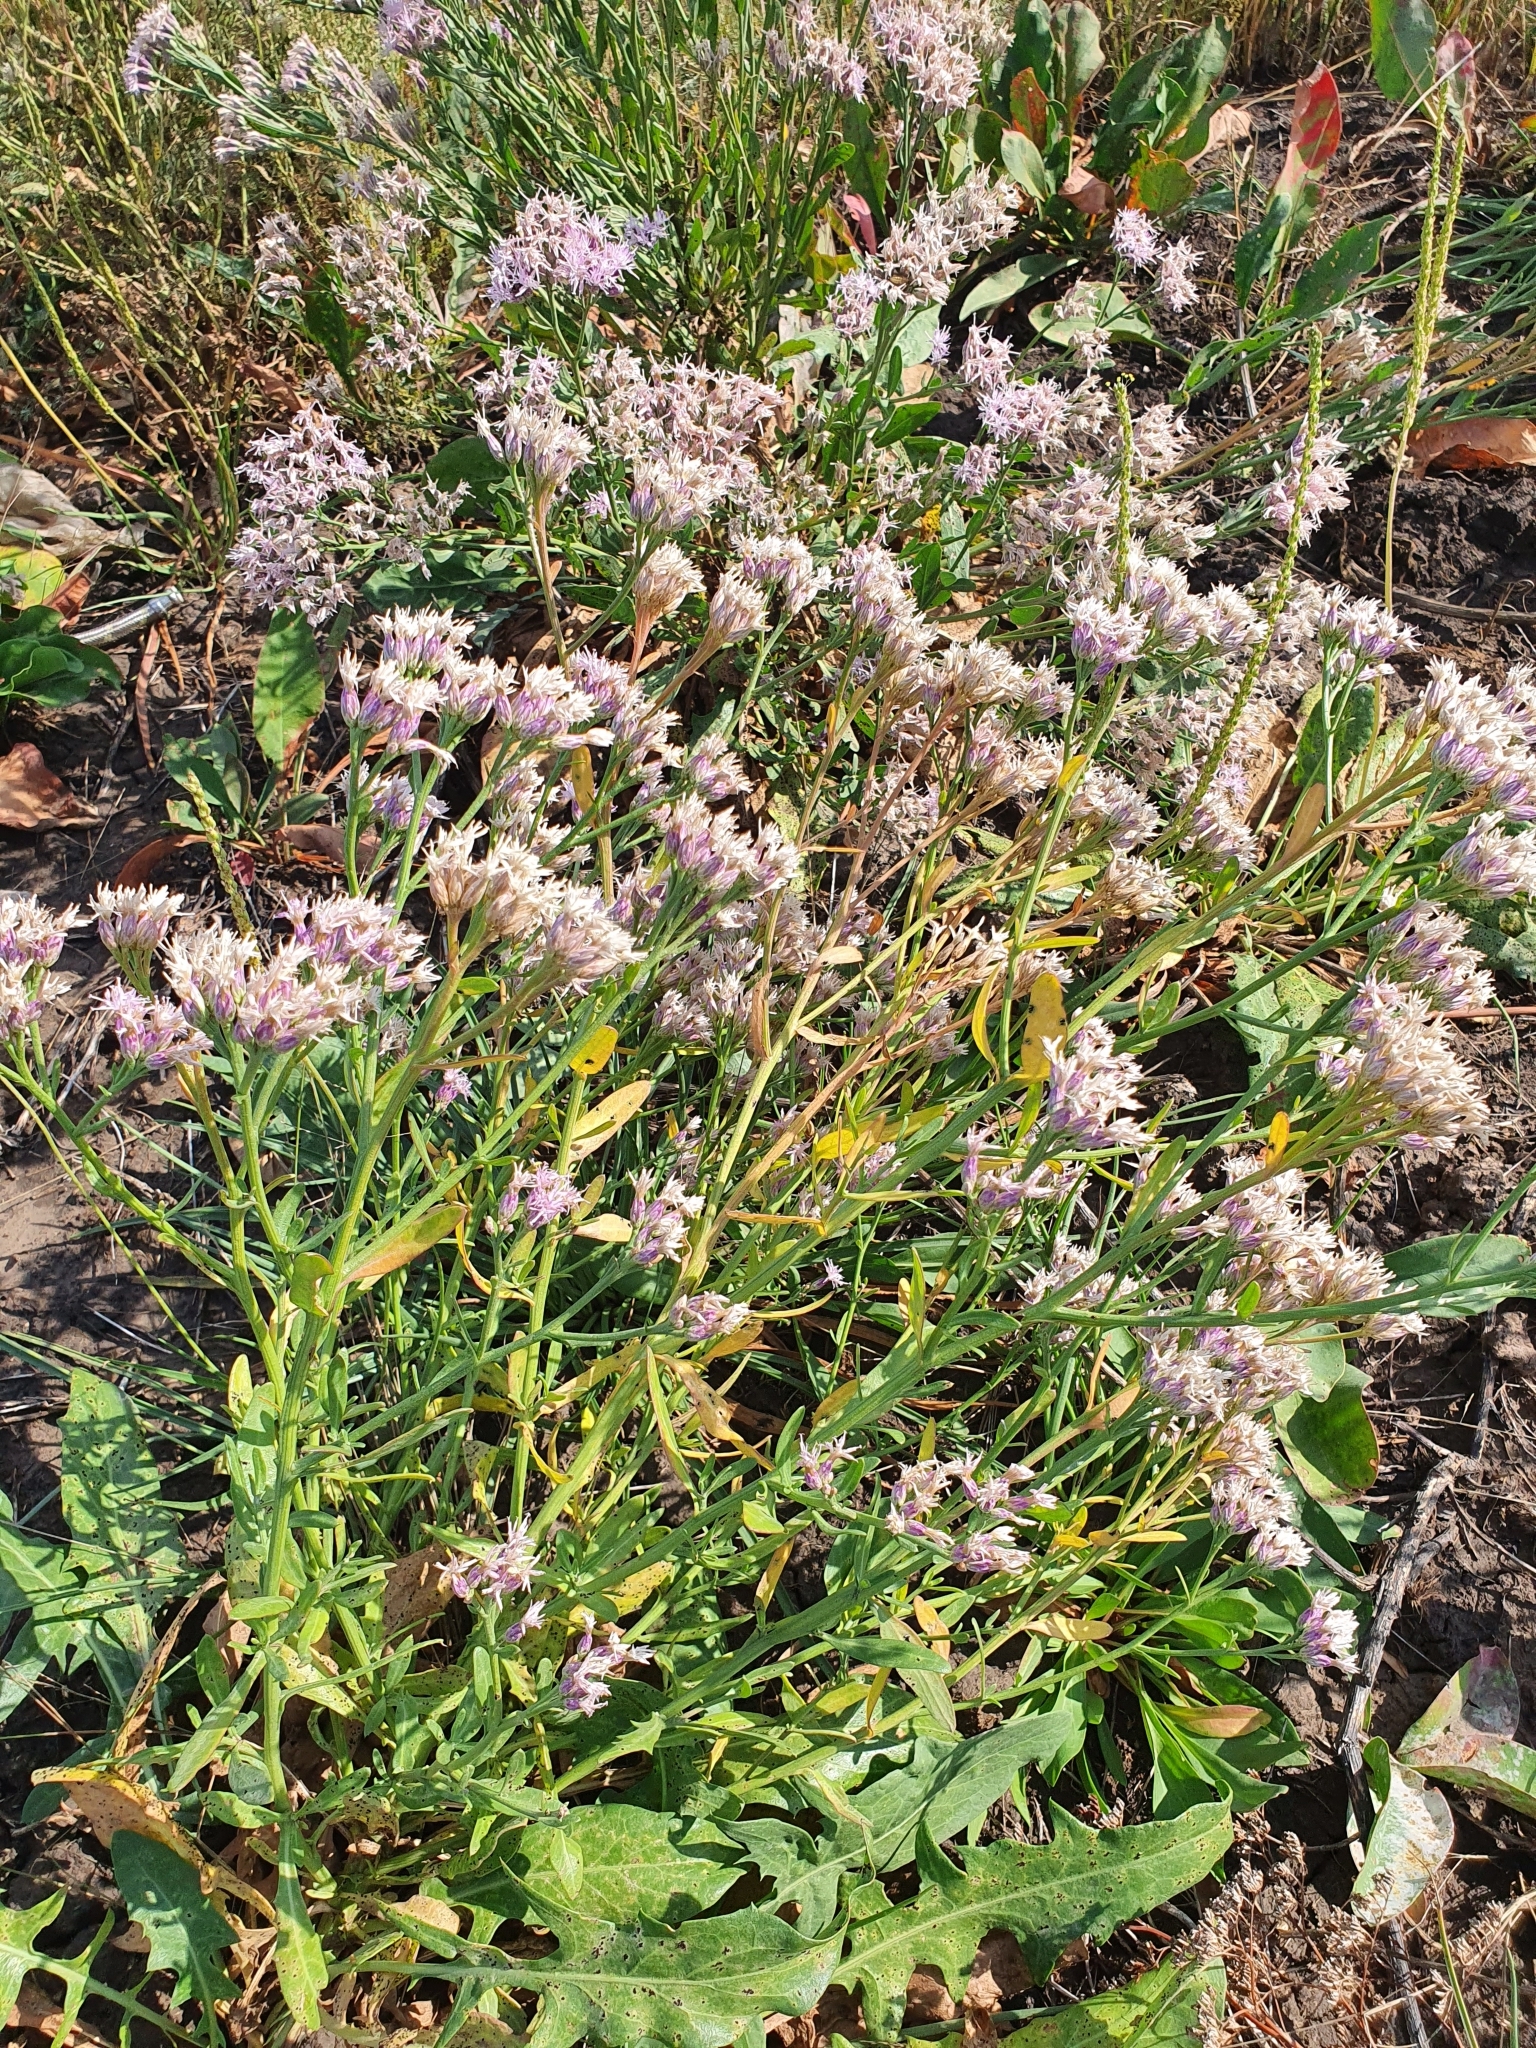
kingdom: Plantae
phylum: Tracheophyta
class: Magnoliopsida
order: Asterales
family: Asteraceae
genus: Saussurea
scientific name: Saussurea salsa
